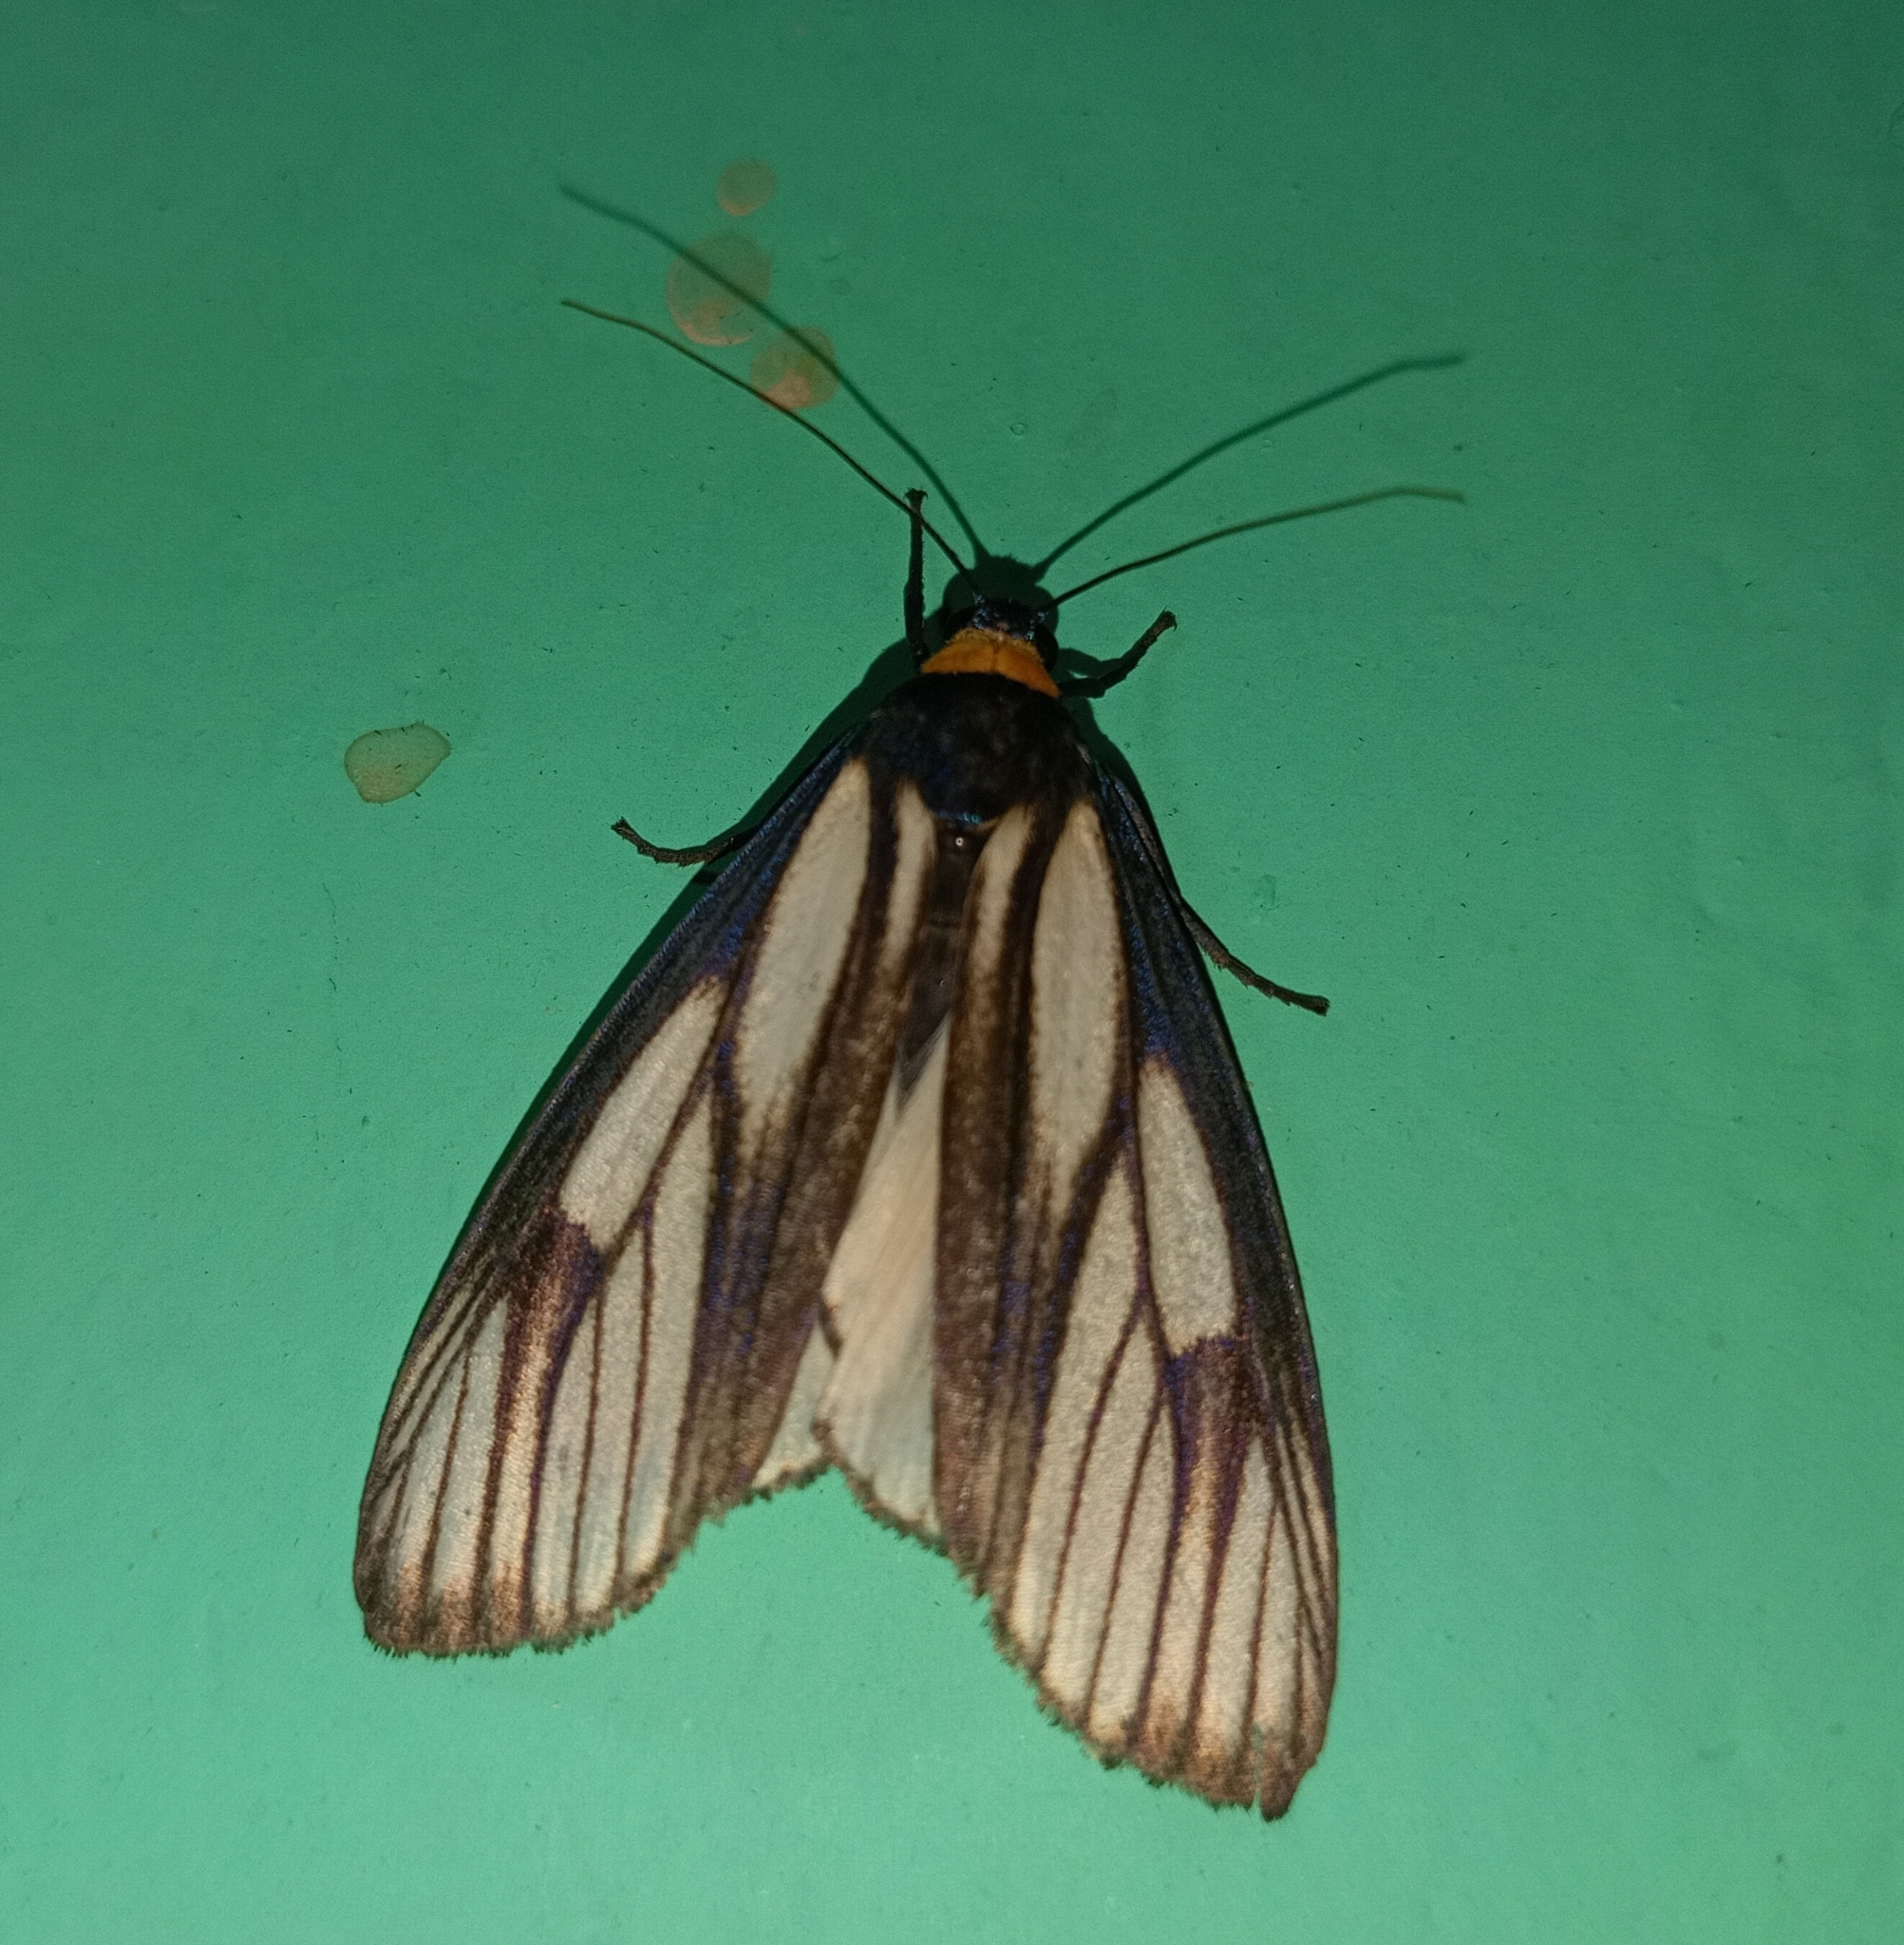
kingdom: Animalia
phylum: Arthropoda
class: Insecta
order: Lepidoptera
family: Erebidae
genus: Macrobrochis
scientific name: Macrobrochis prasena
